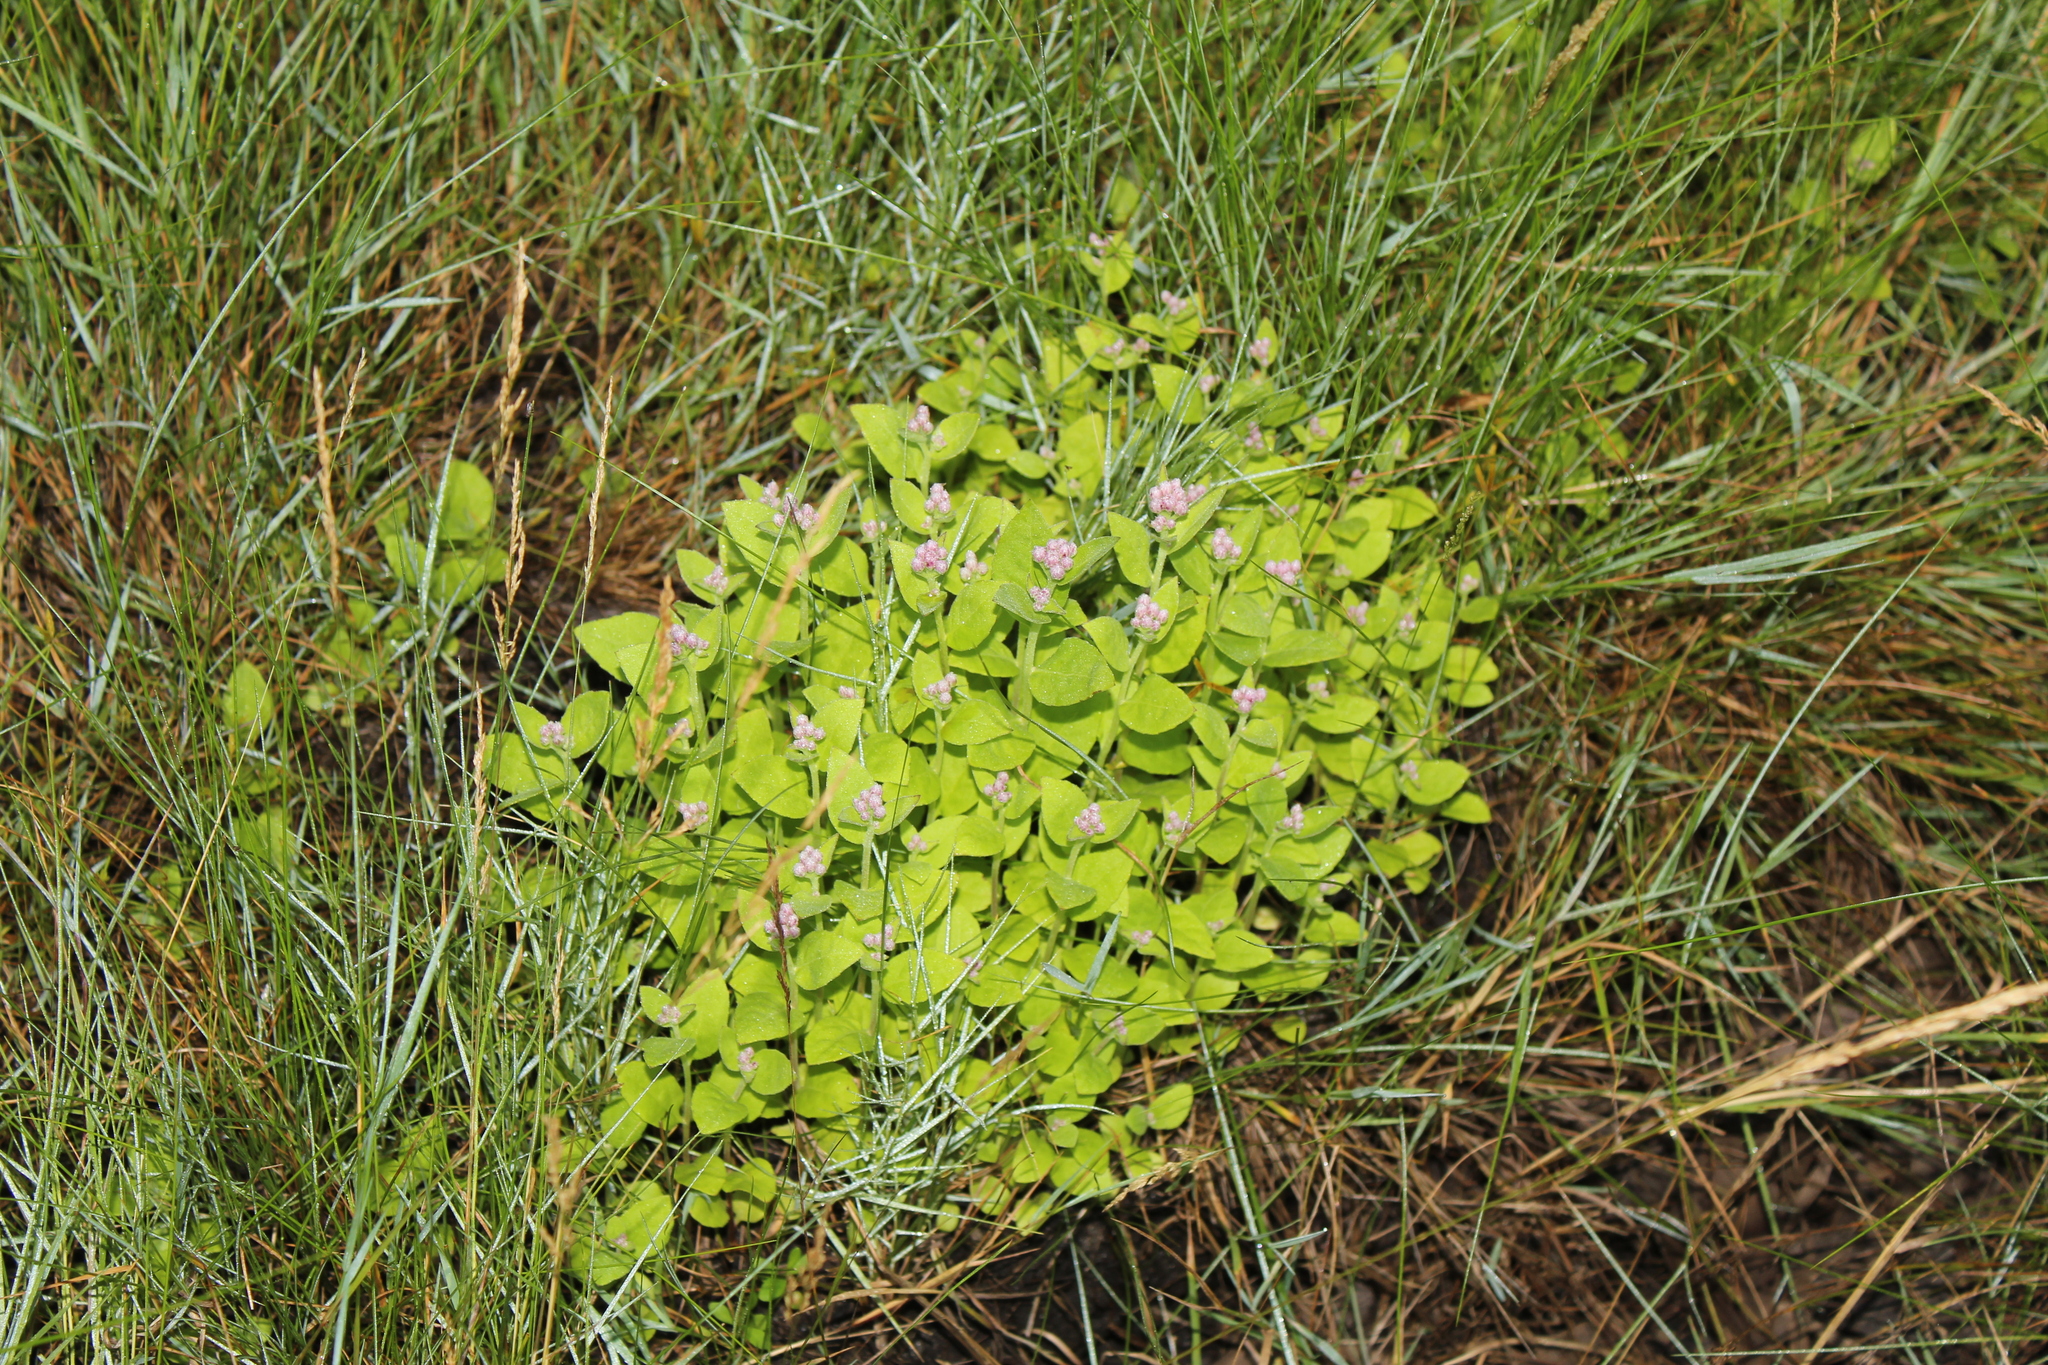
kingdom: Plantae
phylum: Tracheophyta
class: Magnoliopsida
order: Asterales
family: Asteraceae
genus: Pluchea
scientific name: Pluchea odorata
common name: Saltmarsh fleabane
